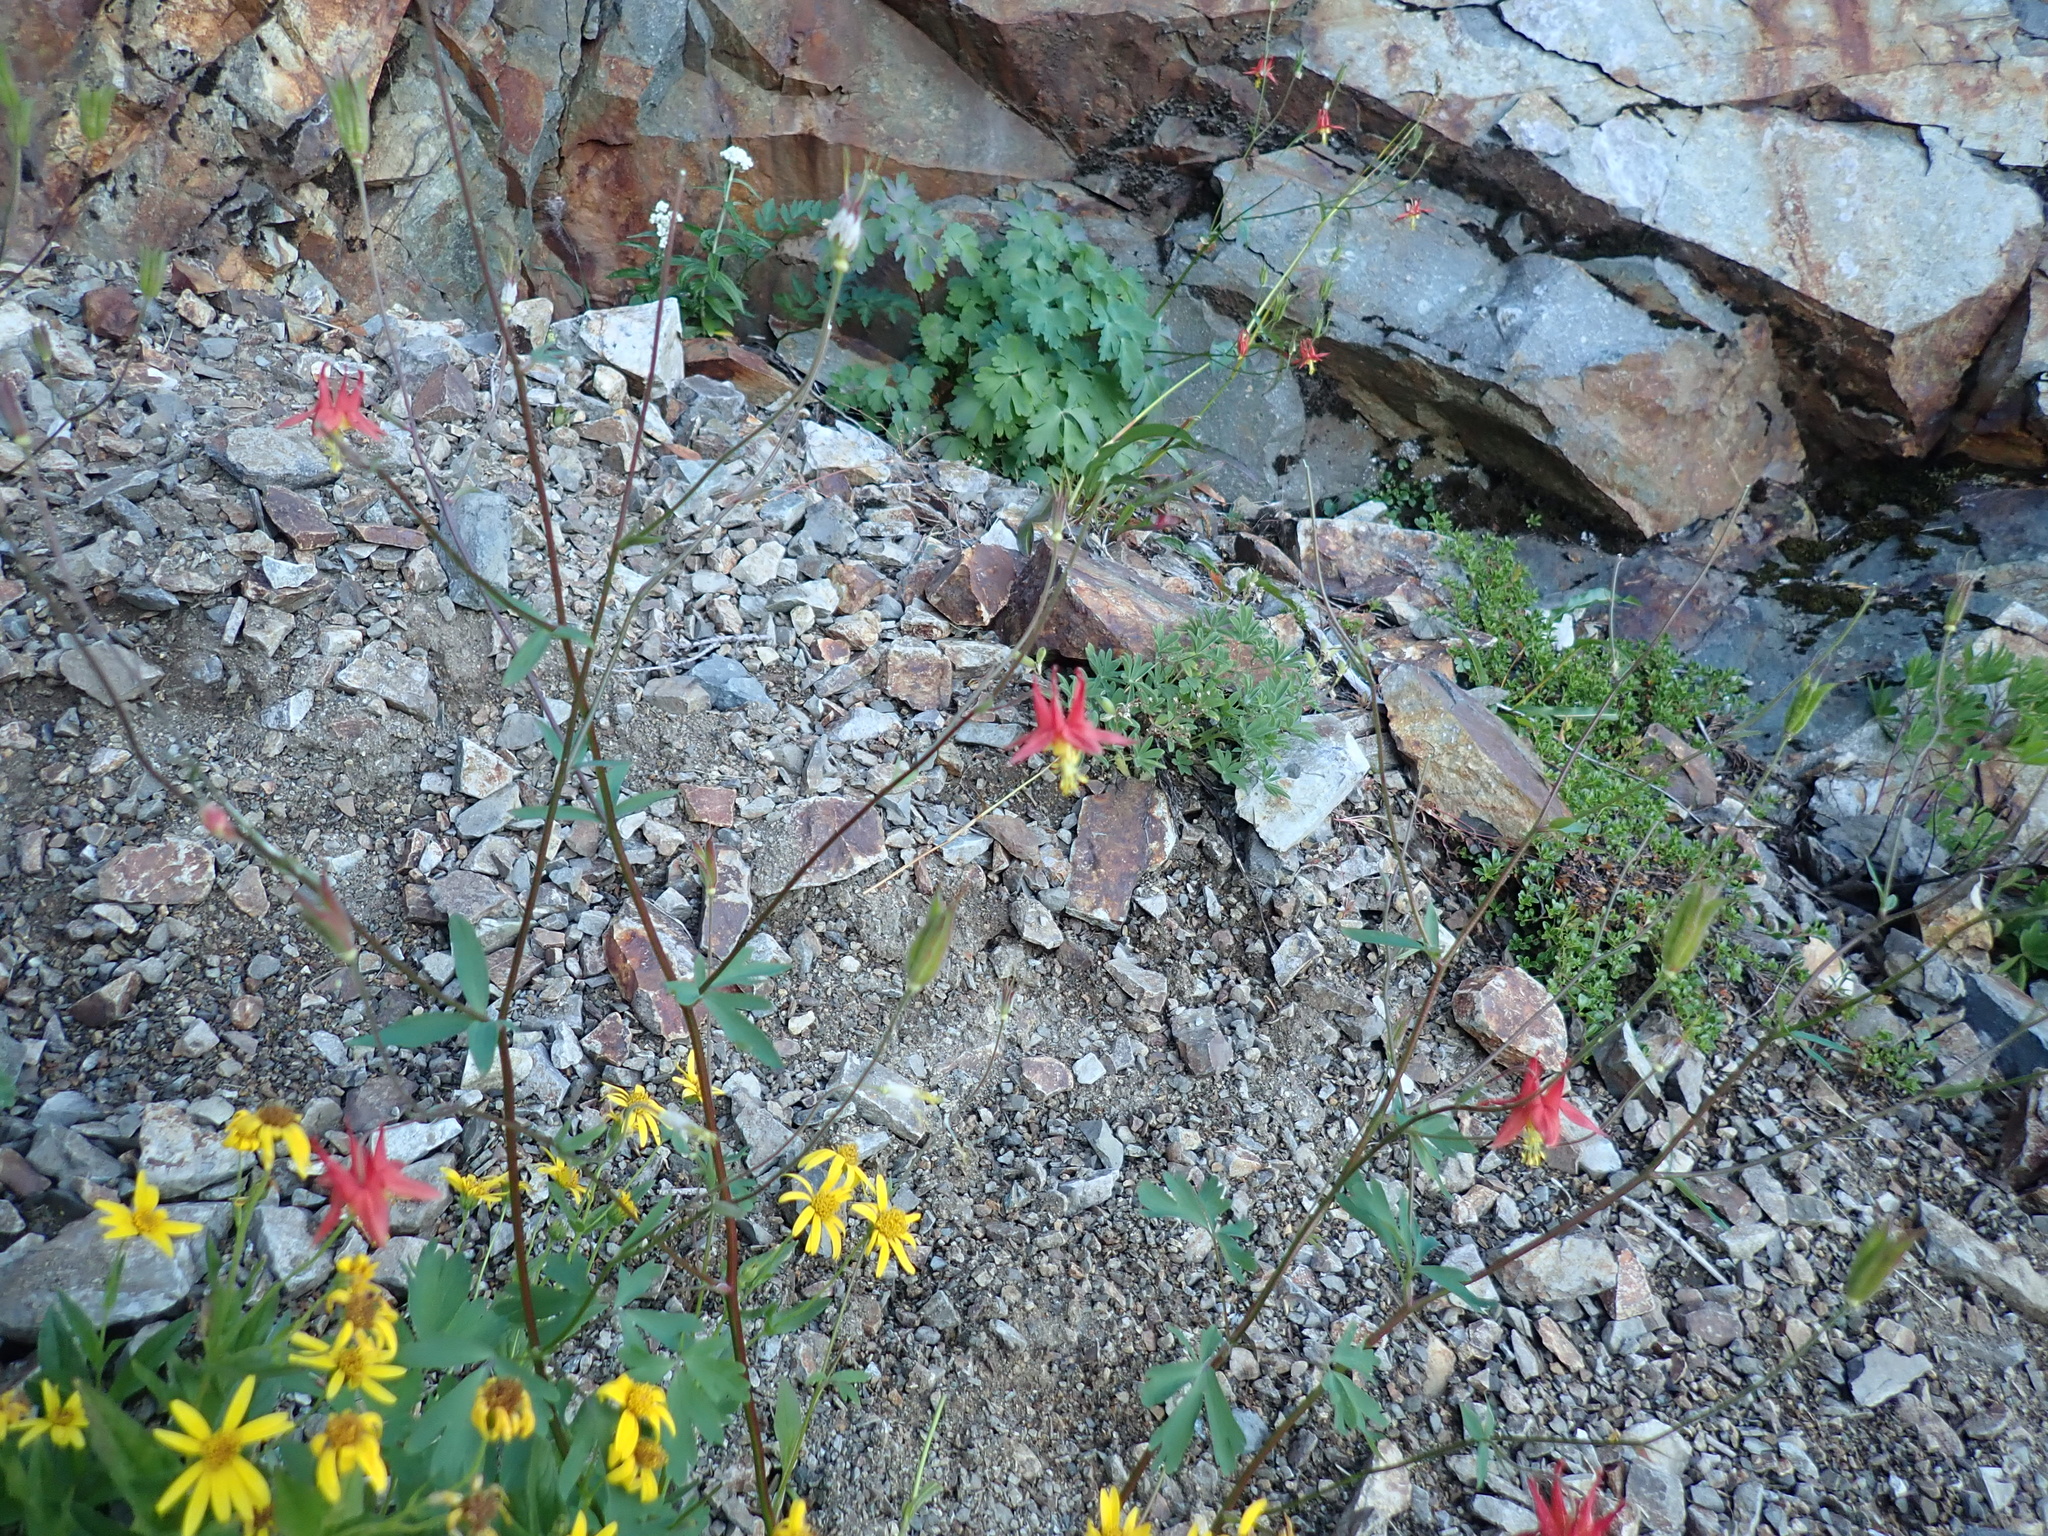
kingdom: Plantae
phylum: Tracheophyta
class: Magnoliopsida
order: Ranunculales
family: Ranunculaceae
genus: Aquilegia
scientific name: Aquilegia formosa
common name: Sitka columbine
